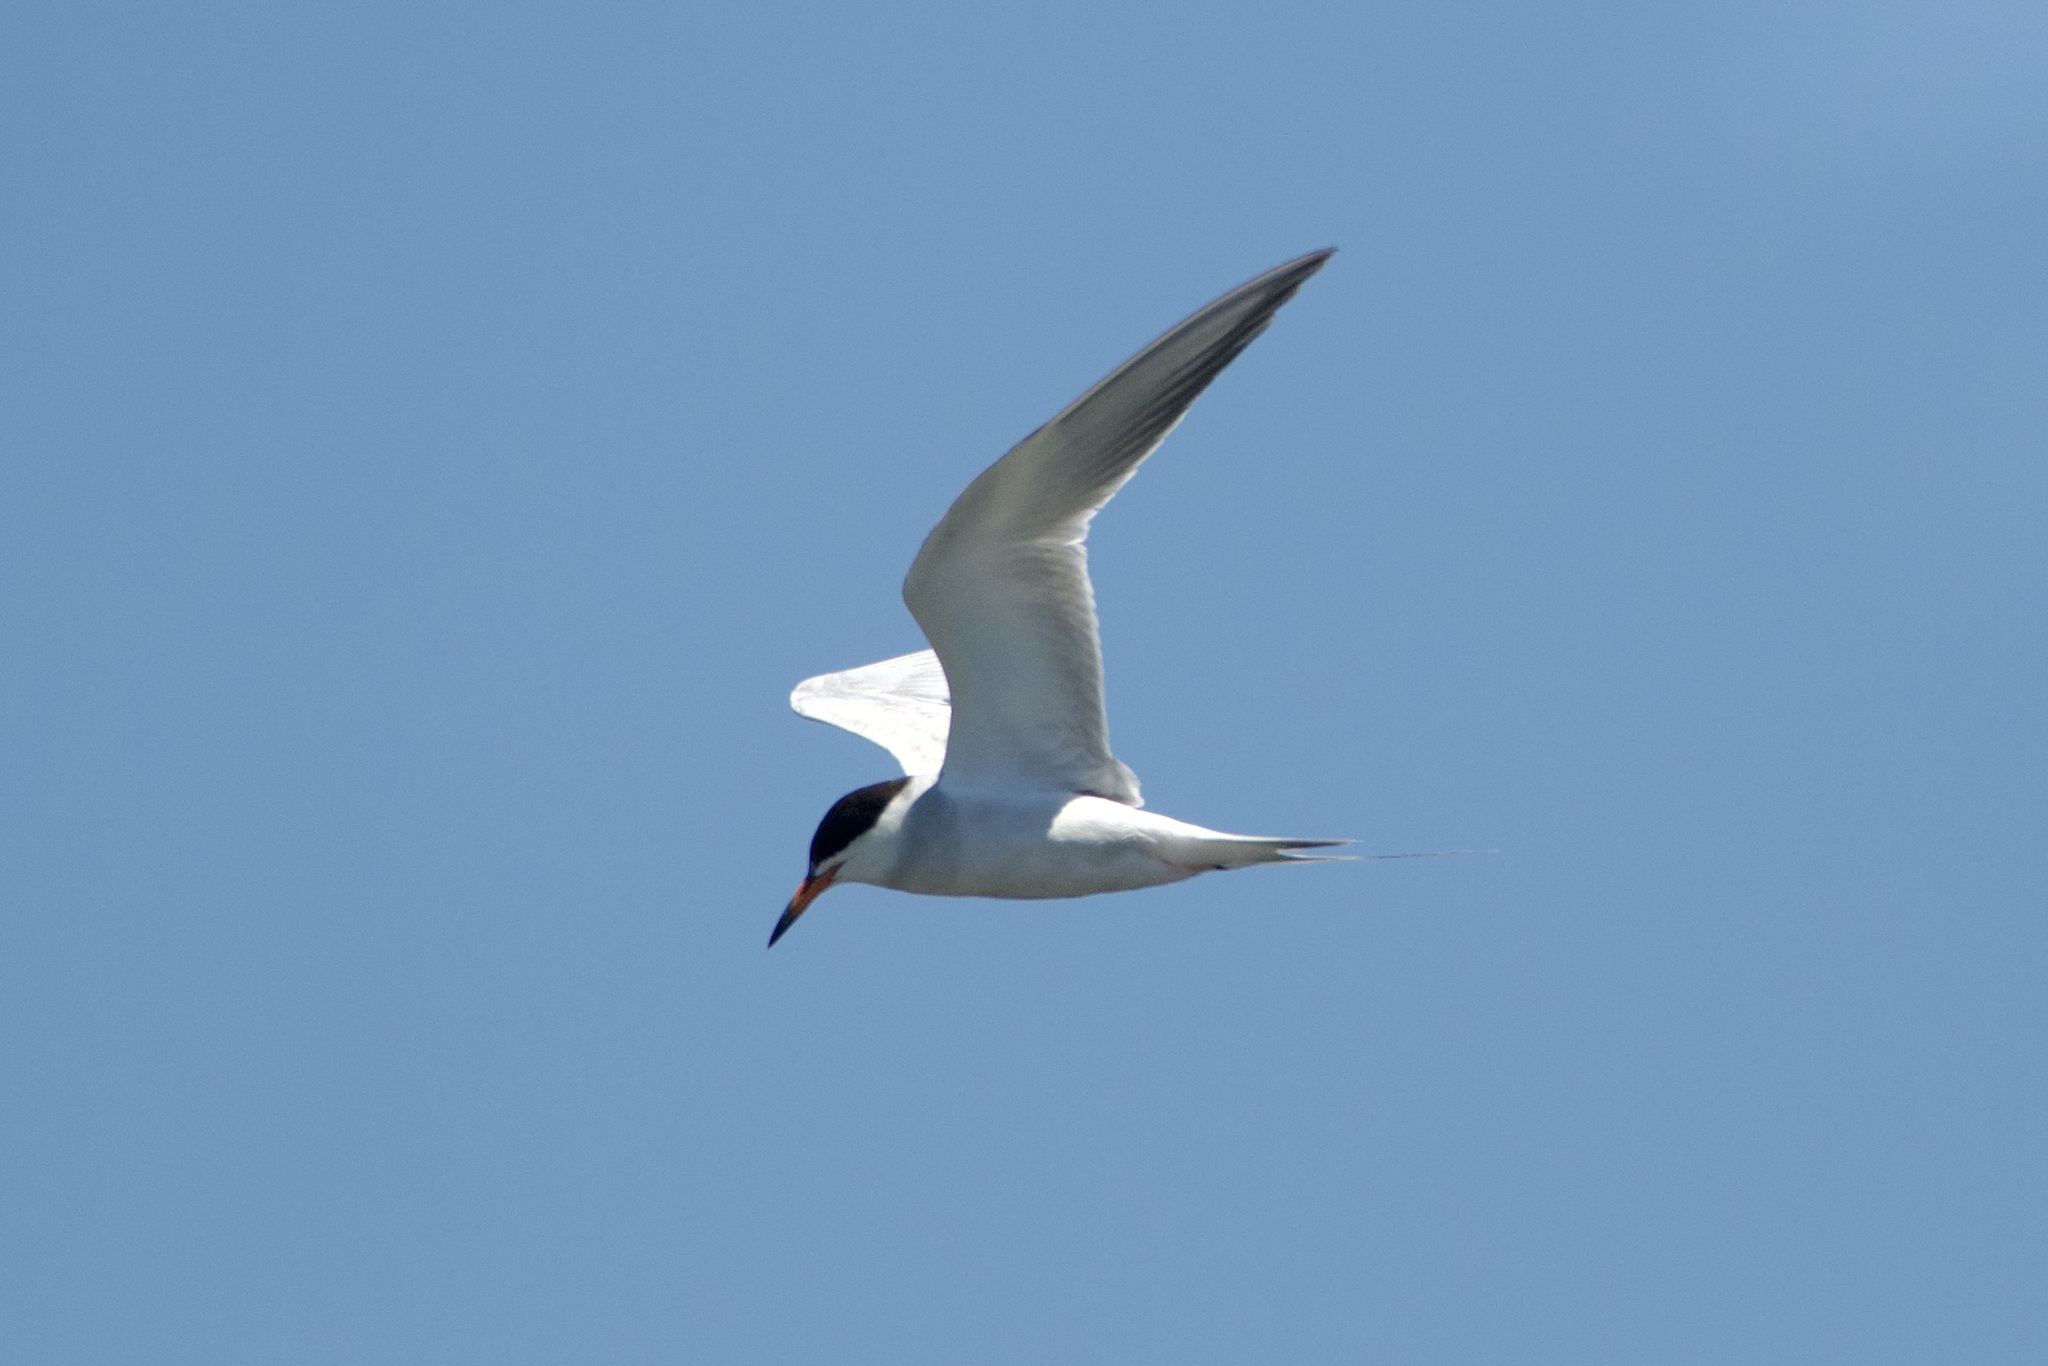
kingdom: Animalia
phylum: Chordata
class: Aves
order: Charadriiformes
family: Laridae
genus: Sterna
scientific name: Sterna forsteri
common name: Forster's tern
